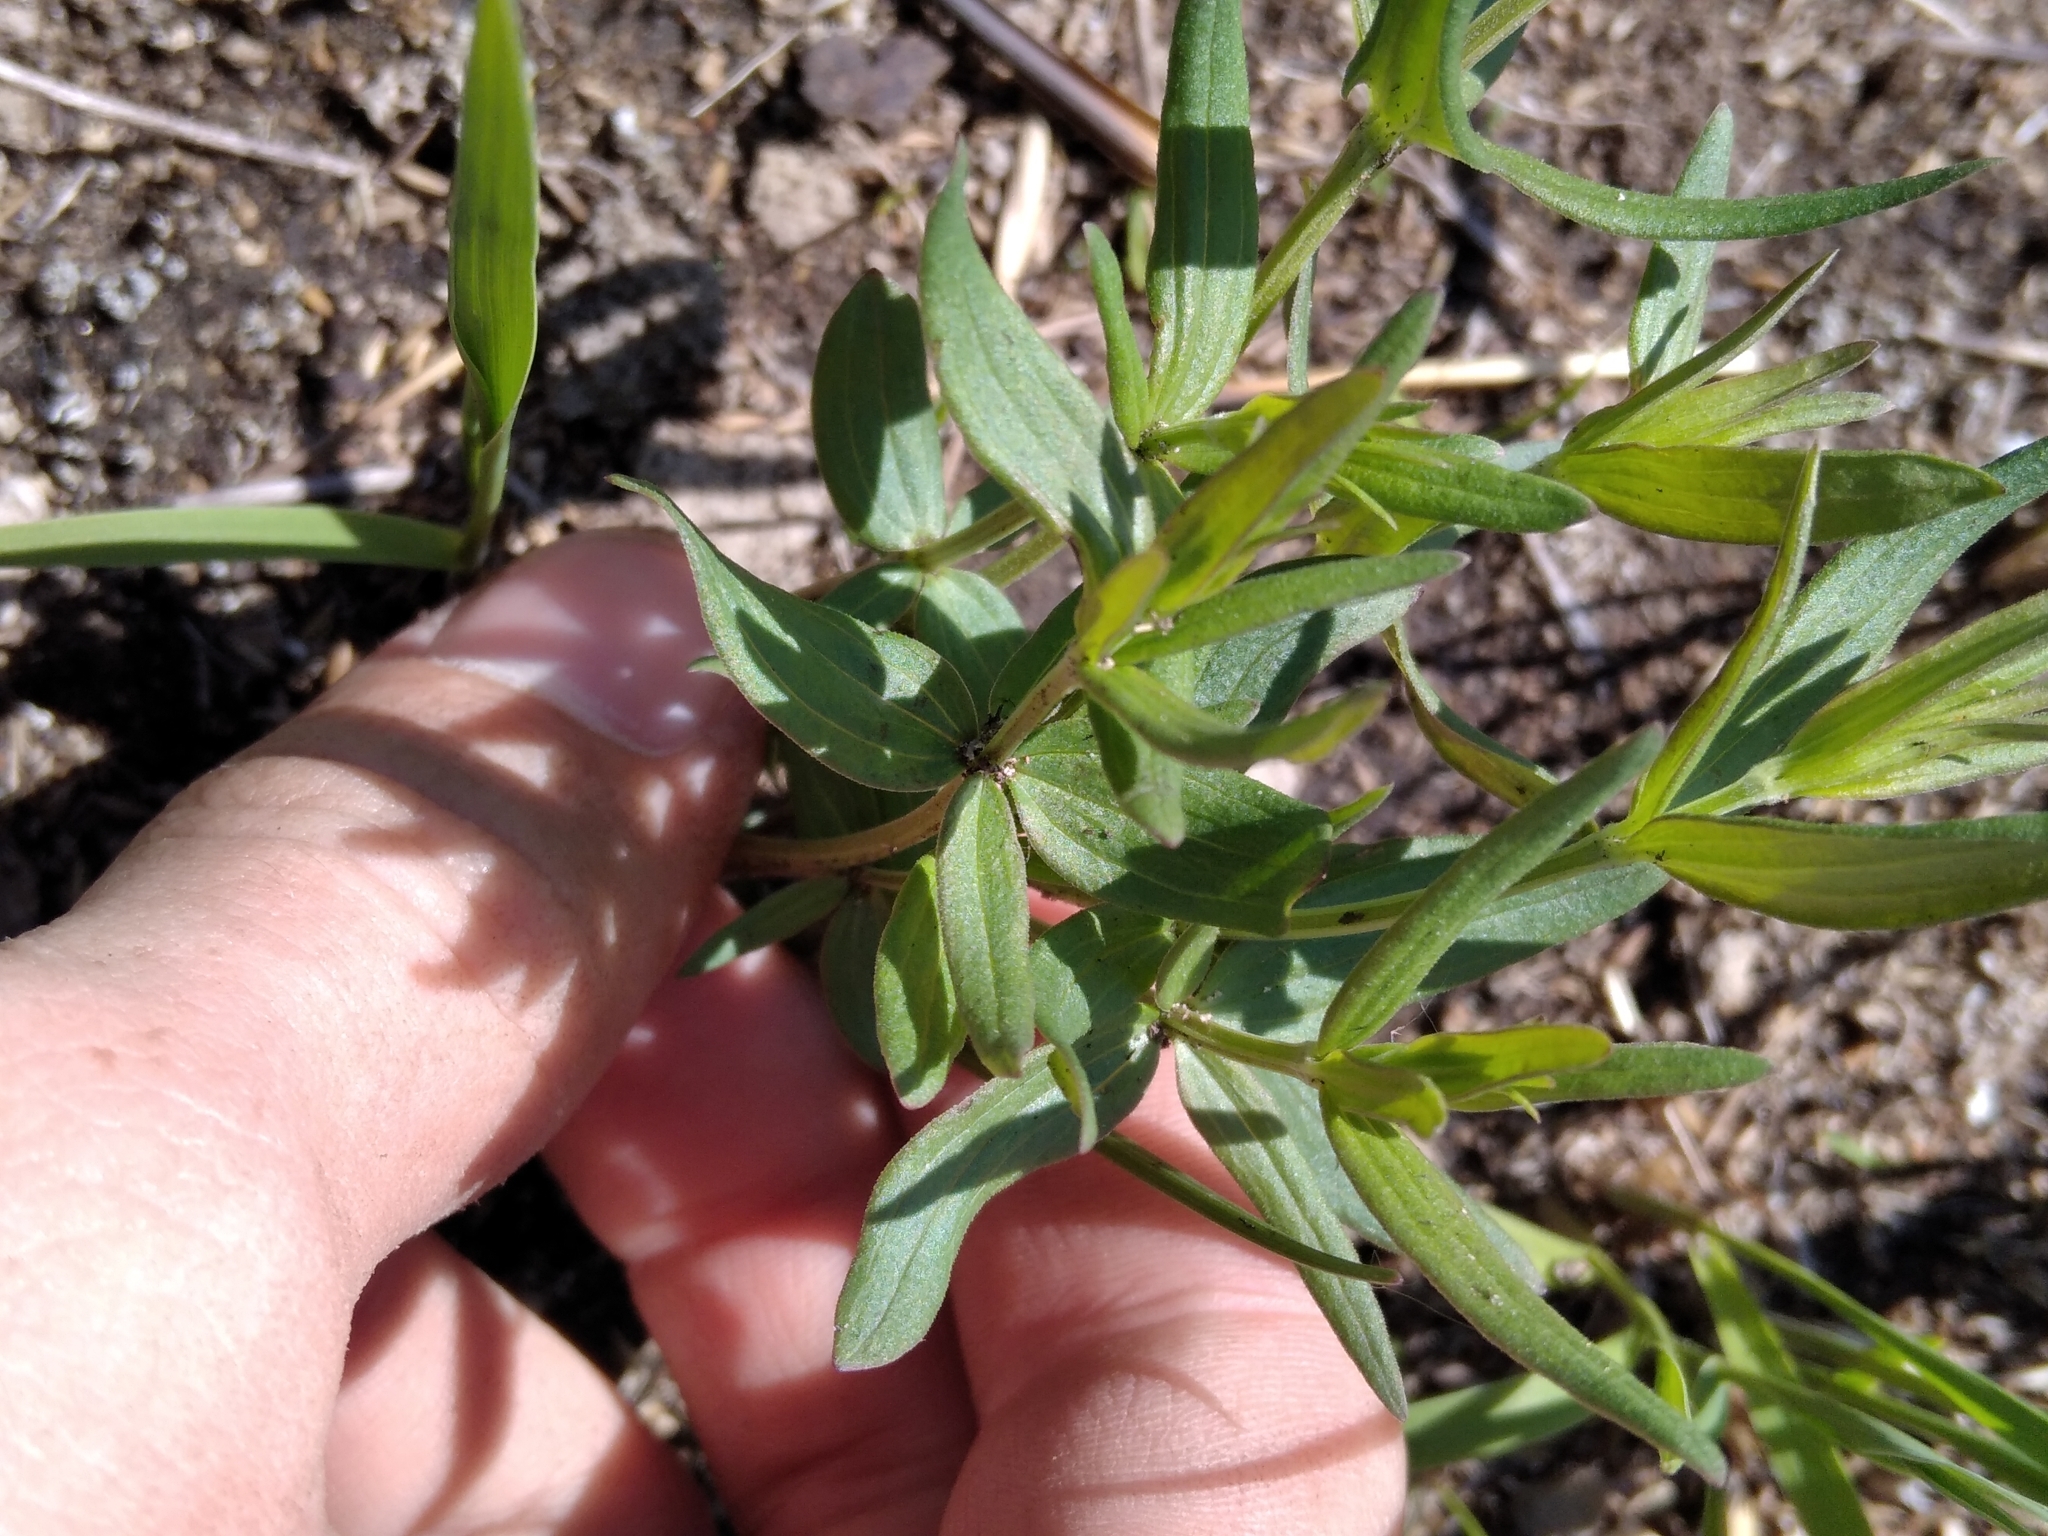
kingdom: Plantae
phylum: Tracheophyta
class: Magnoliopsida
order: Gentianales
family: Rubiaceae
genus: Galium
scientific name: Galium boreale
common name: Northern bedstraw
